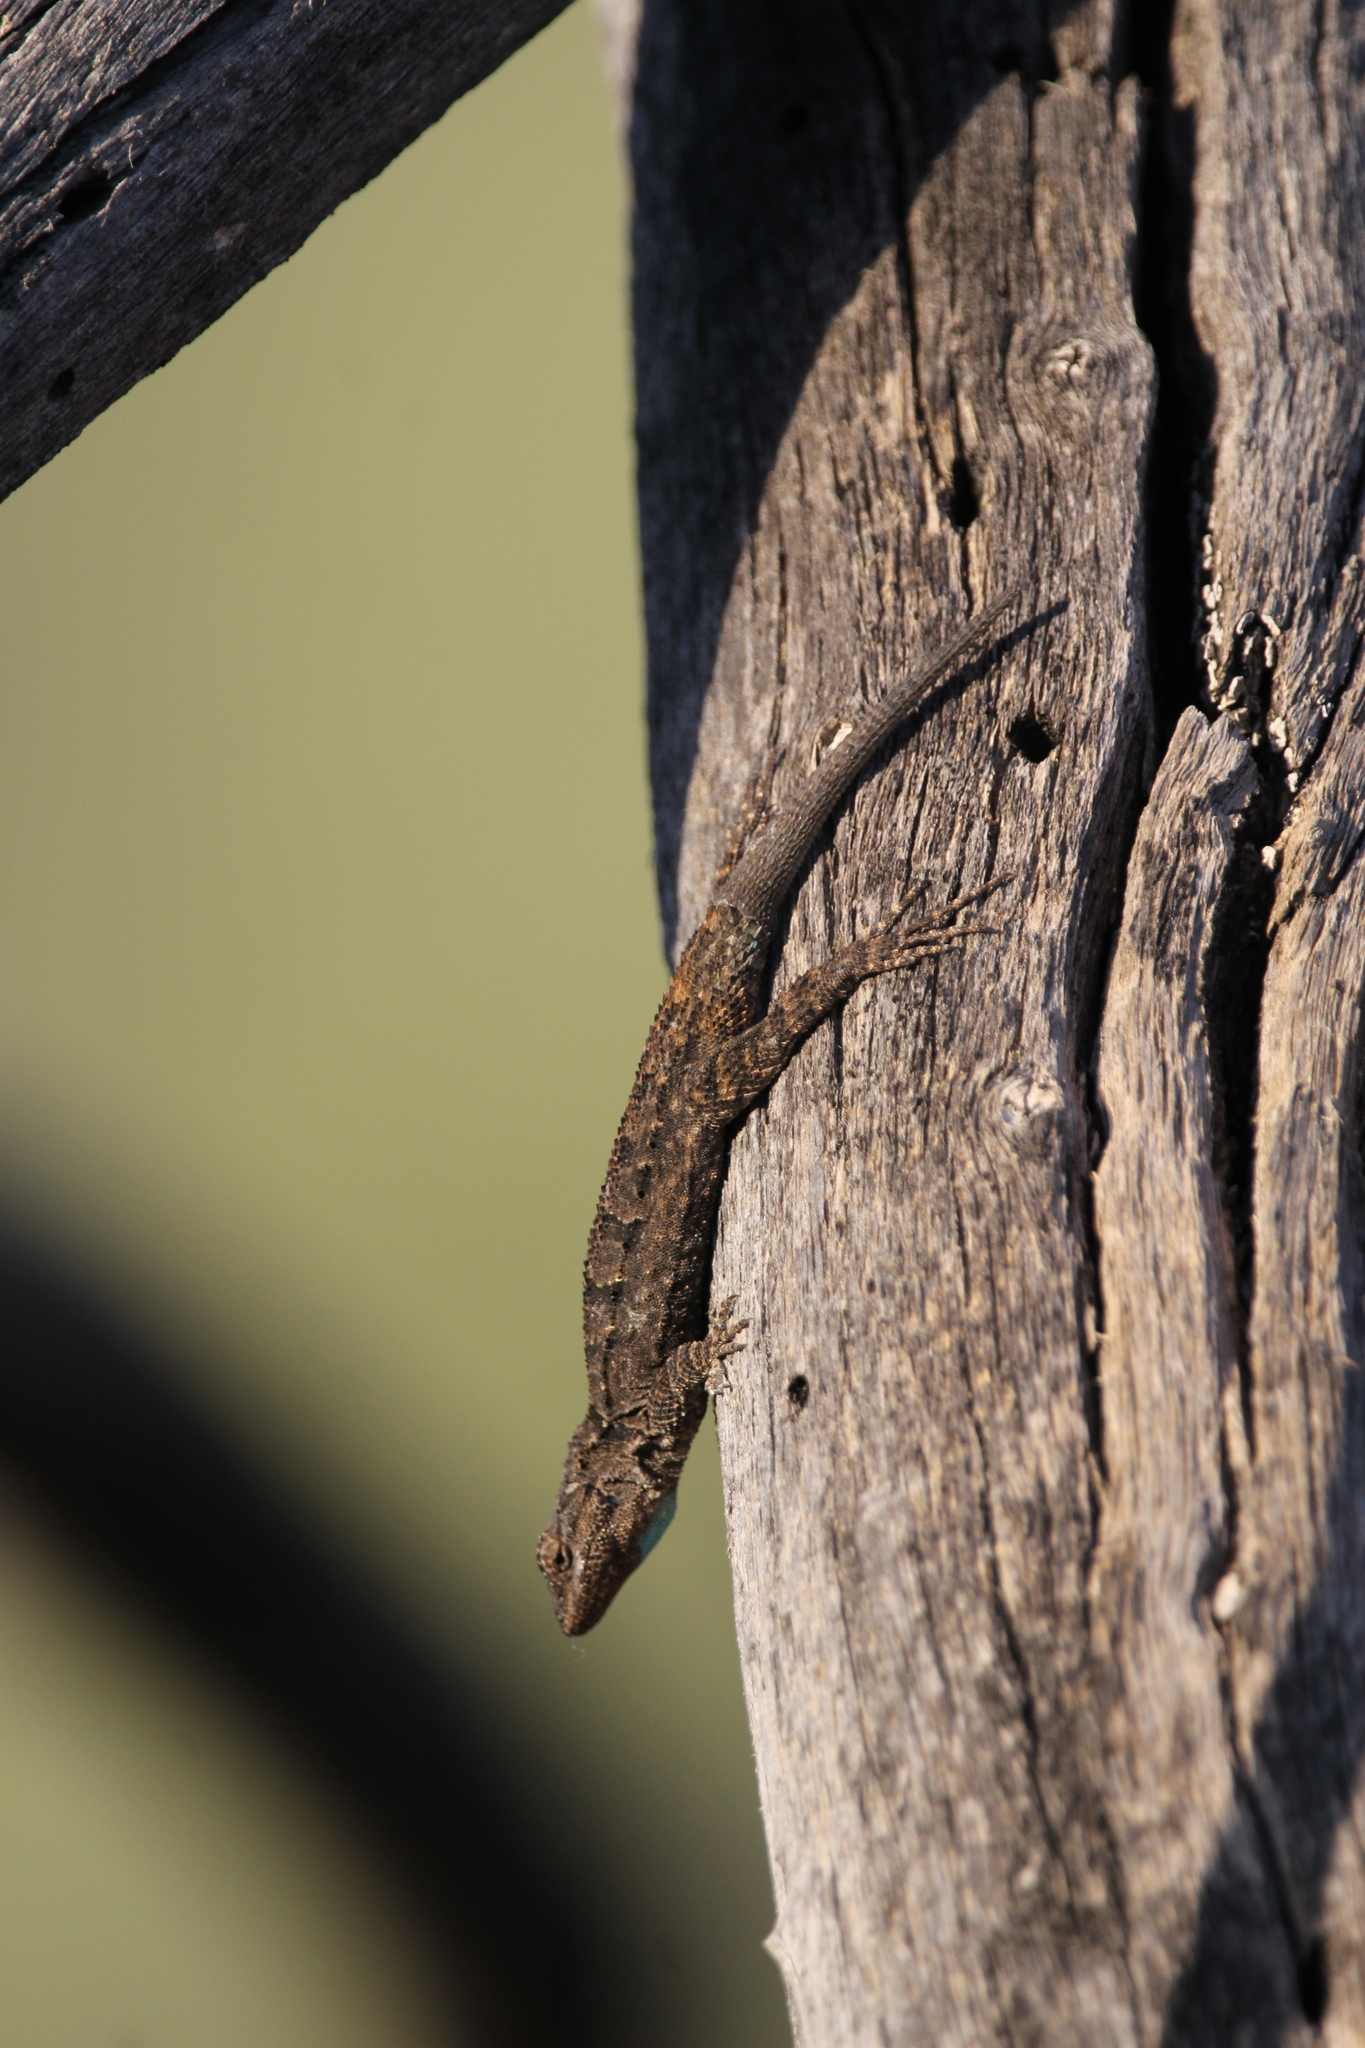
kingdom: Animalia
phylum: Chordata
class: Squamata
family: Phrynosomatidae
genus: Urosaurus
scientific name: Urosaurus ornatus
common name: Ornate tree lizard
